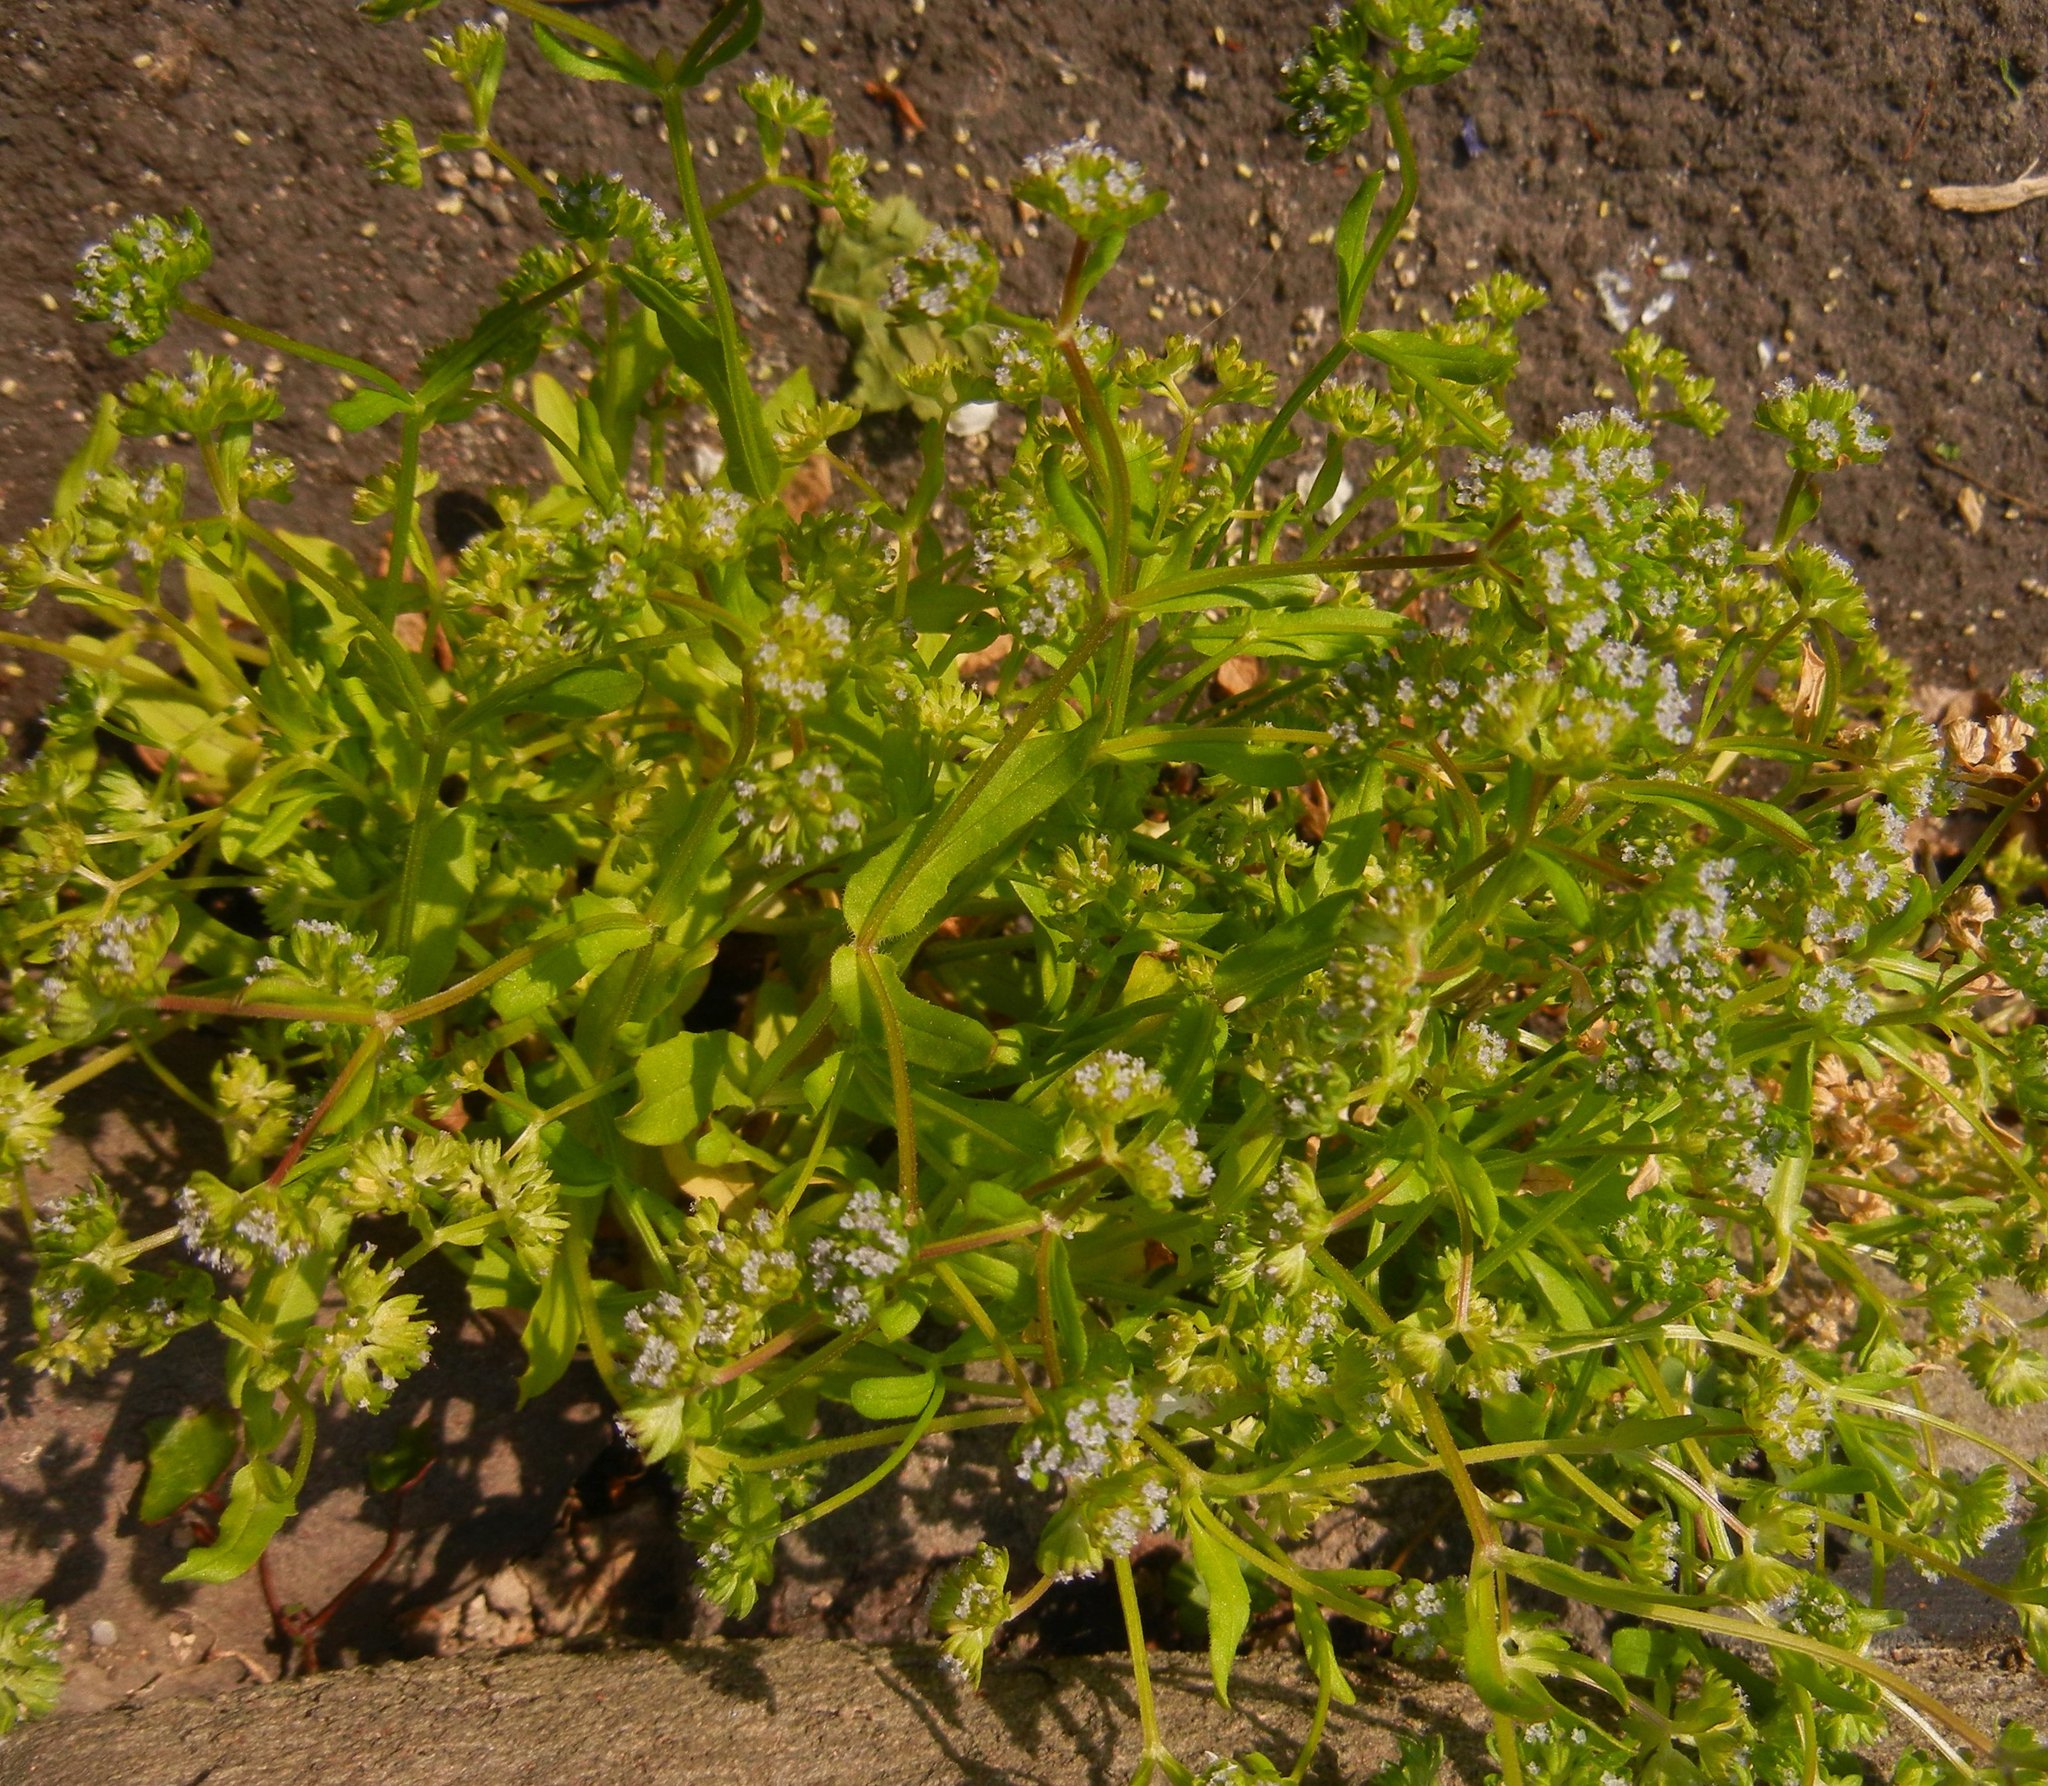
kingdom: Plantae
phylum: Tracheophyta
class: Magnoliopsida
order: Dipsacales
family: Caprifoliaceae
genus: Valerianella
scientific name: Valerianella carinata
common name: Keeled-fruited cornsalad
